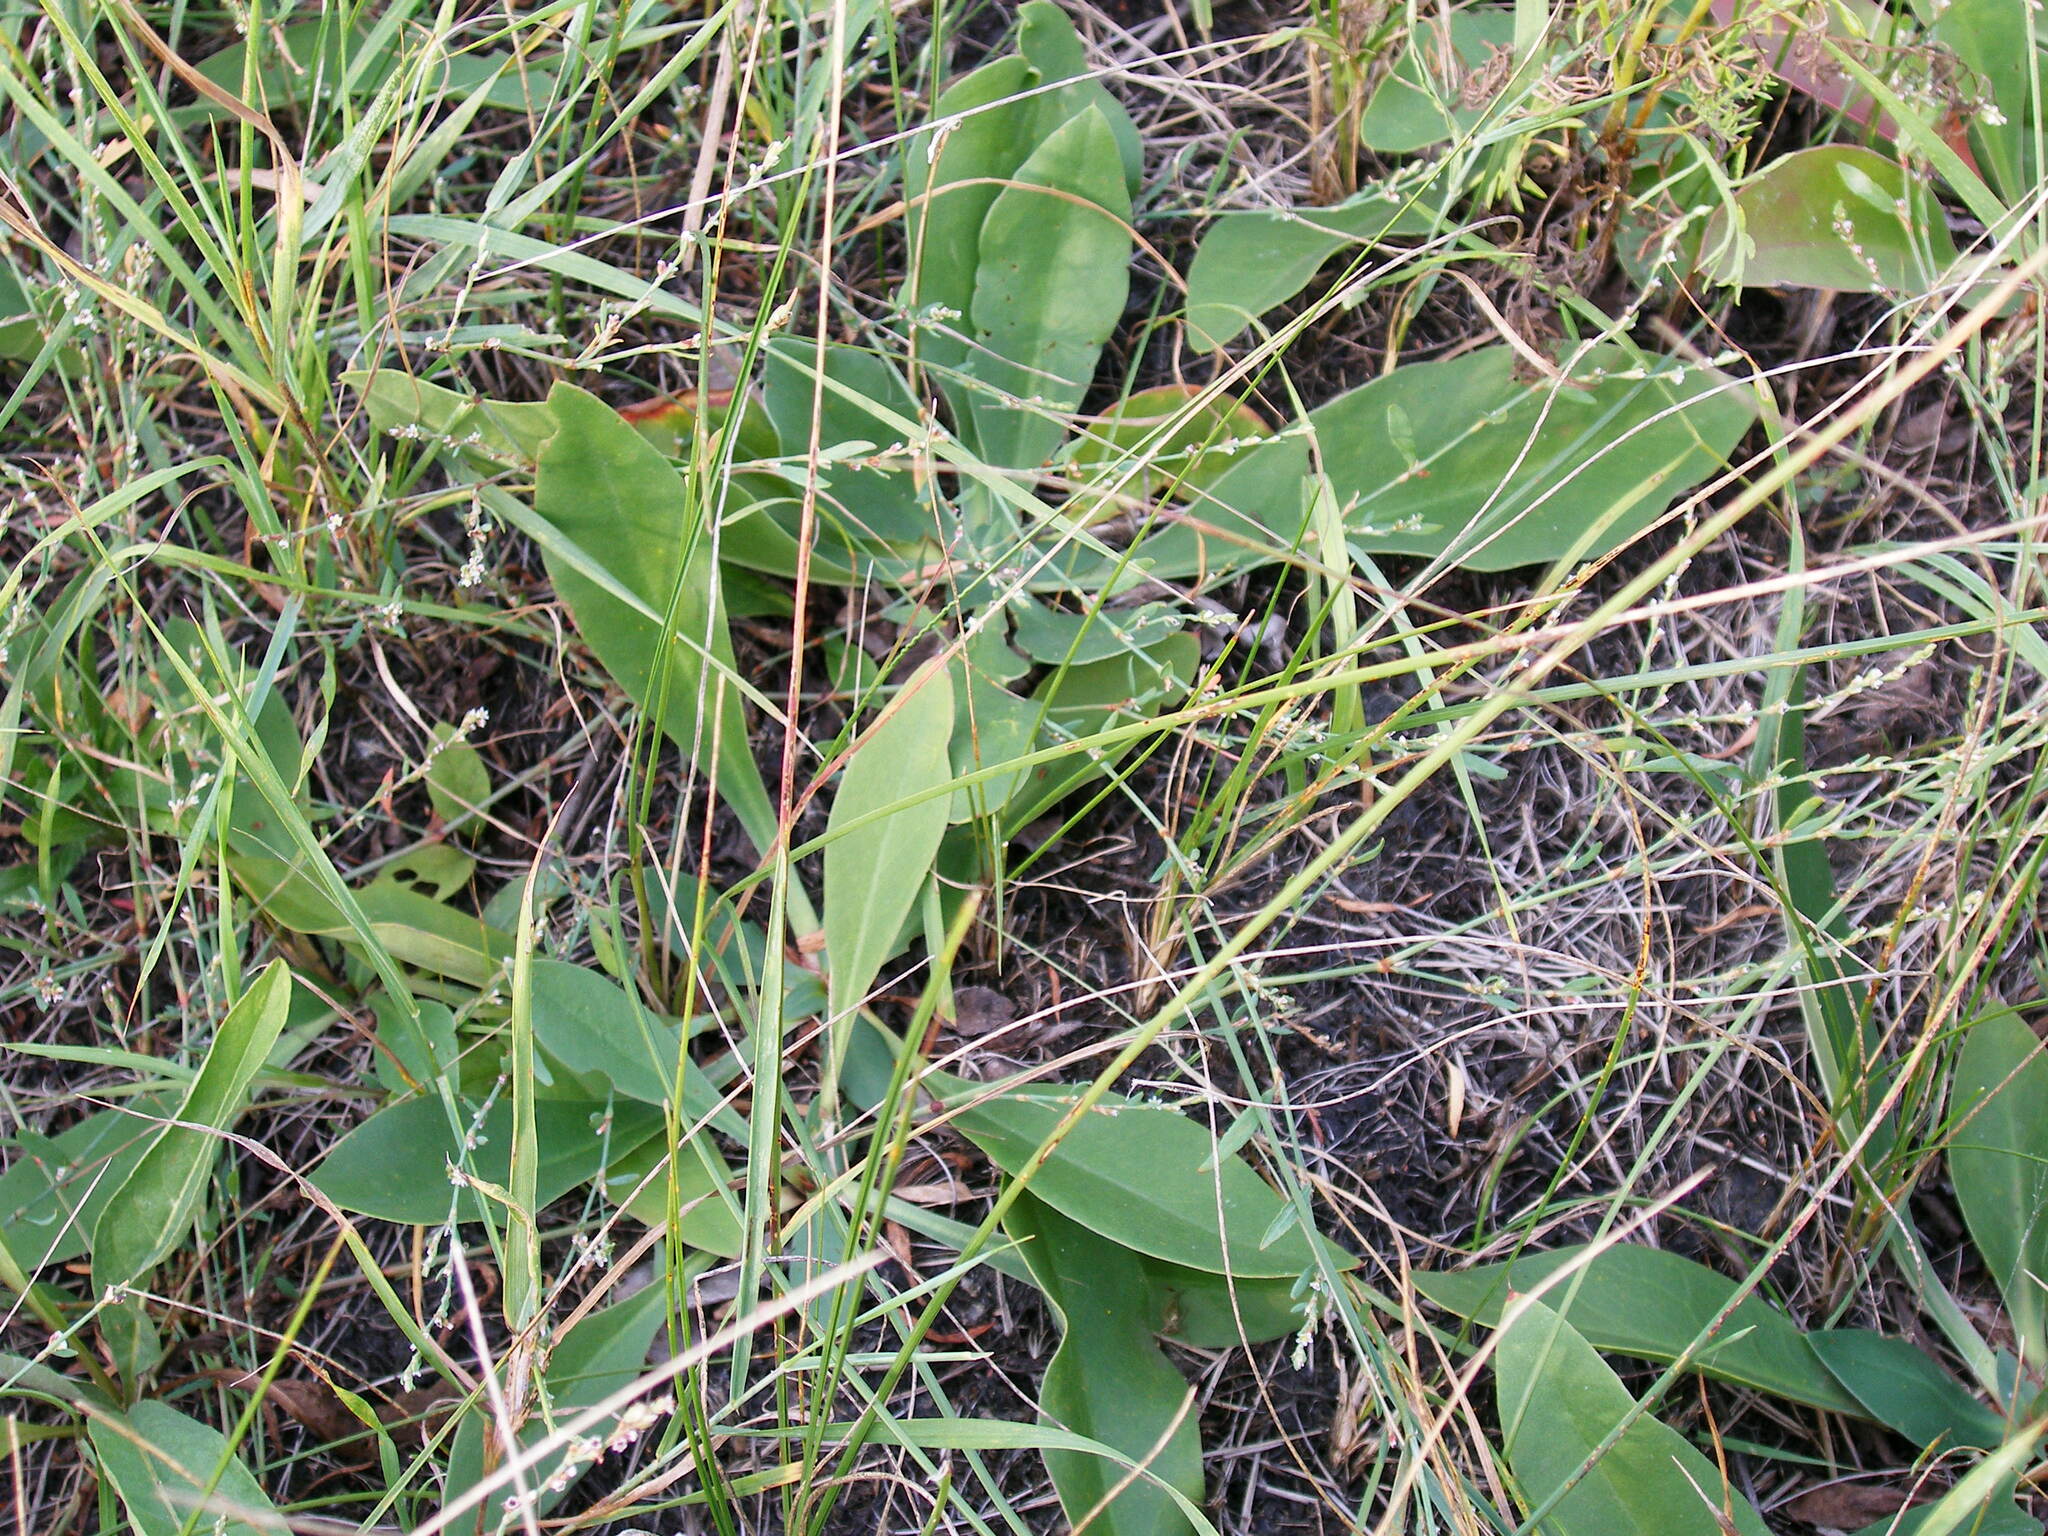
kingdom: Plantae
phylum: Tracheophyta
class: Magnoliopsida
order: Caryophyllales
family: Plumbaginaceae
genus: Limonium
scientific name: Limonium tomentellum
